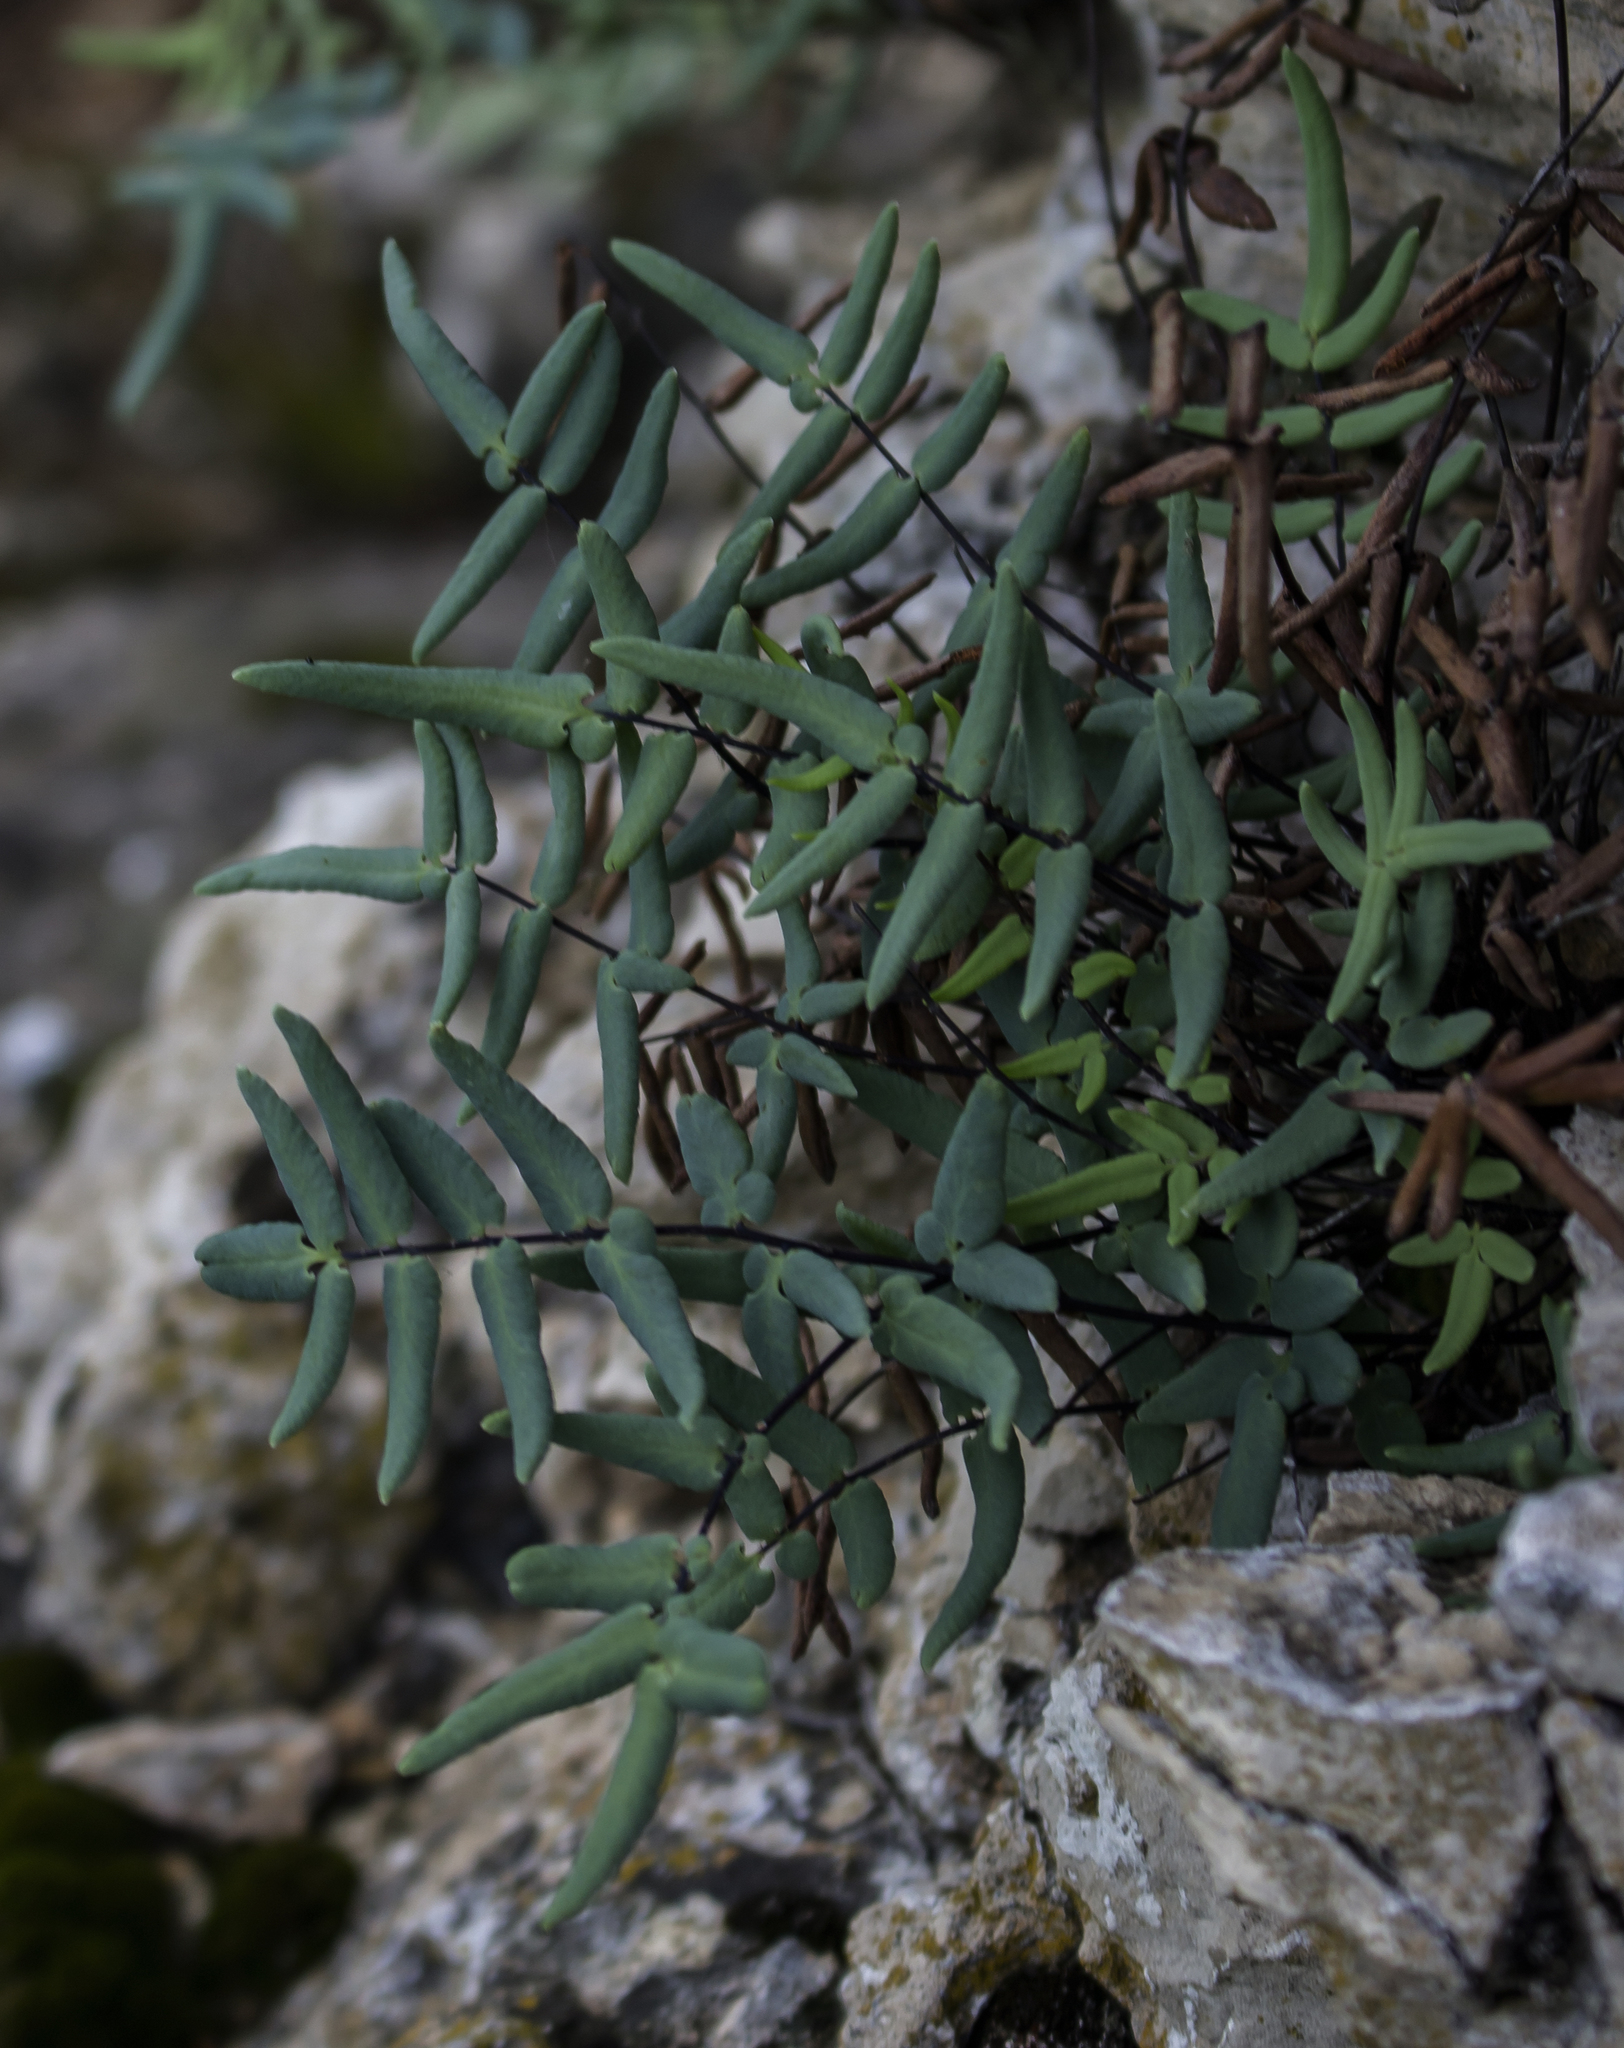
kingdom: Plantae
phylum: Tracheophyta
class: Polypodiopsida
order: Polypodiales
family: Pteridaceae
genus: Pellaea
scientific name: Pellaea glabella
